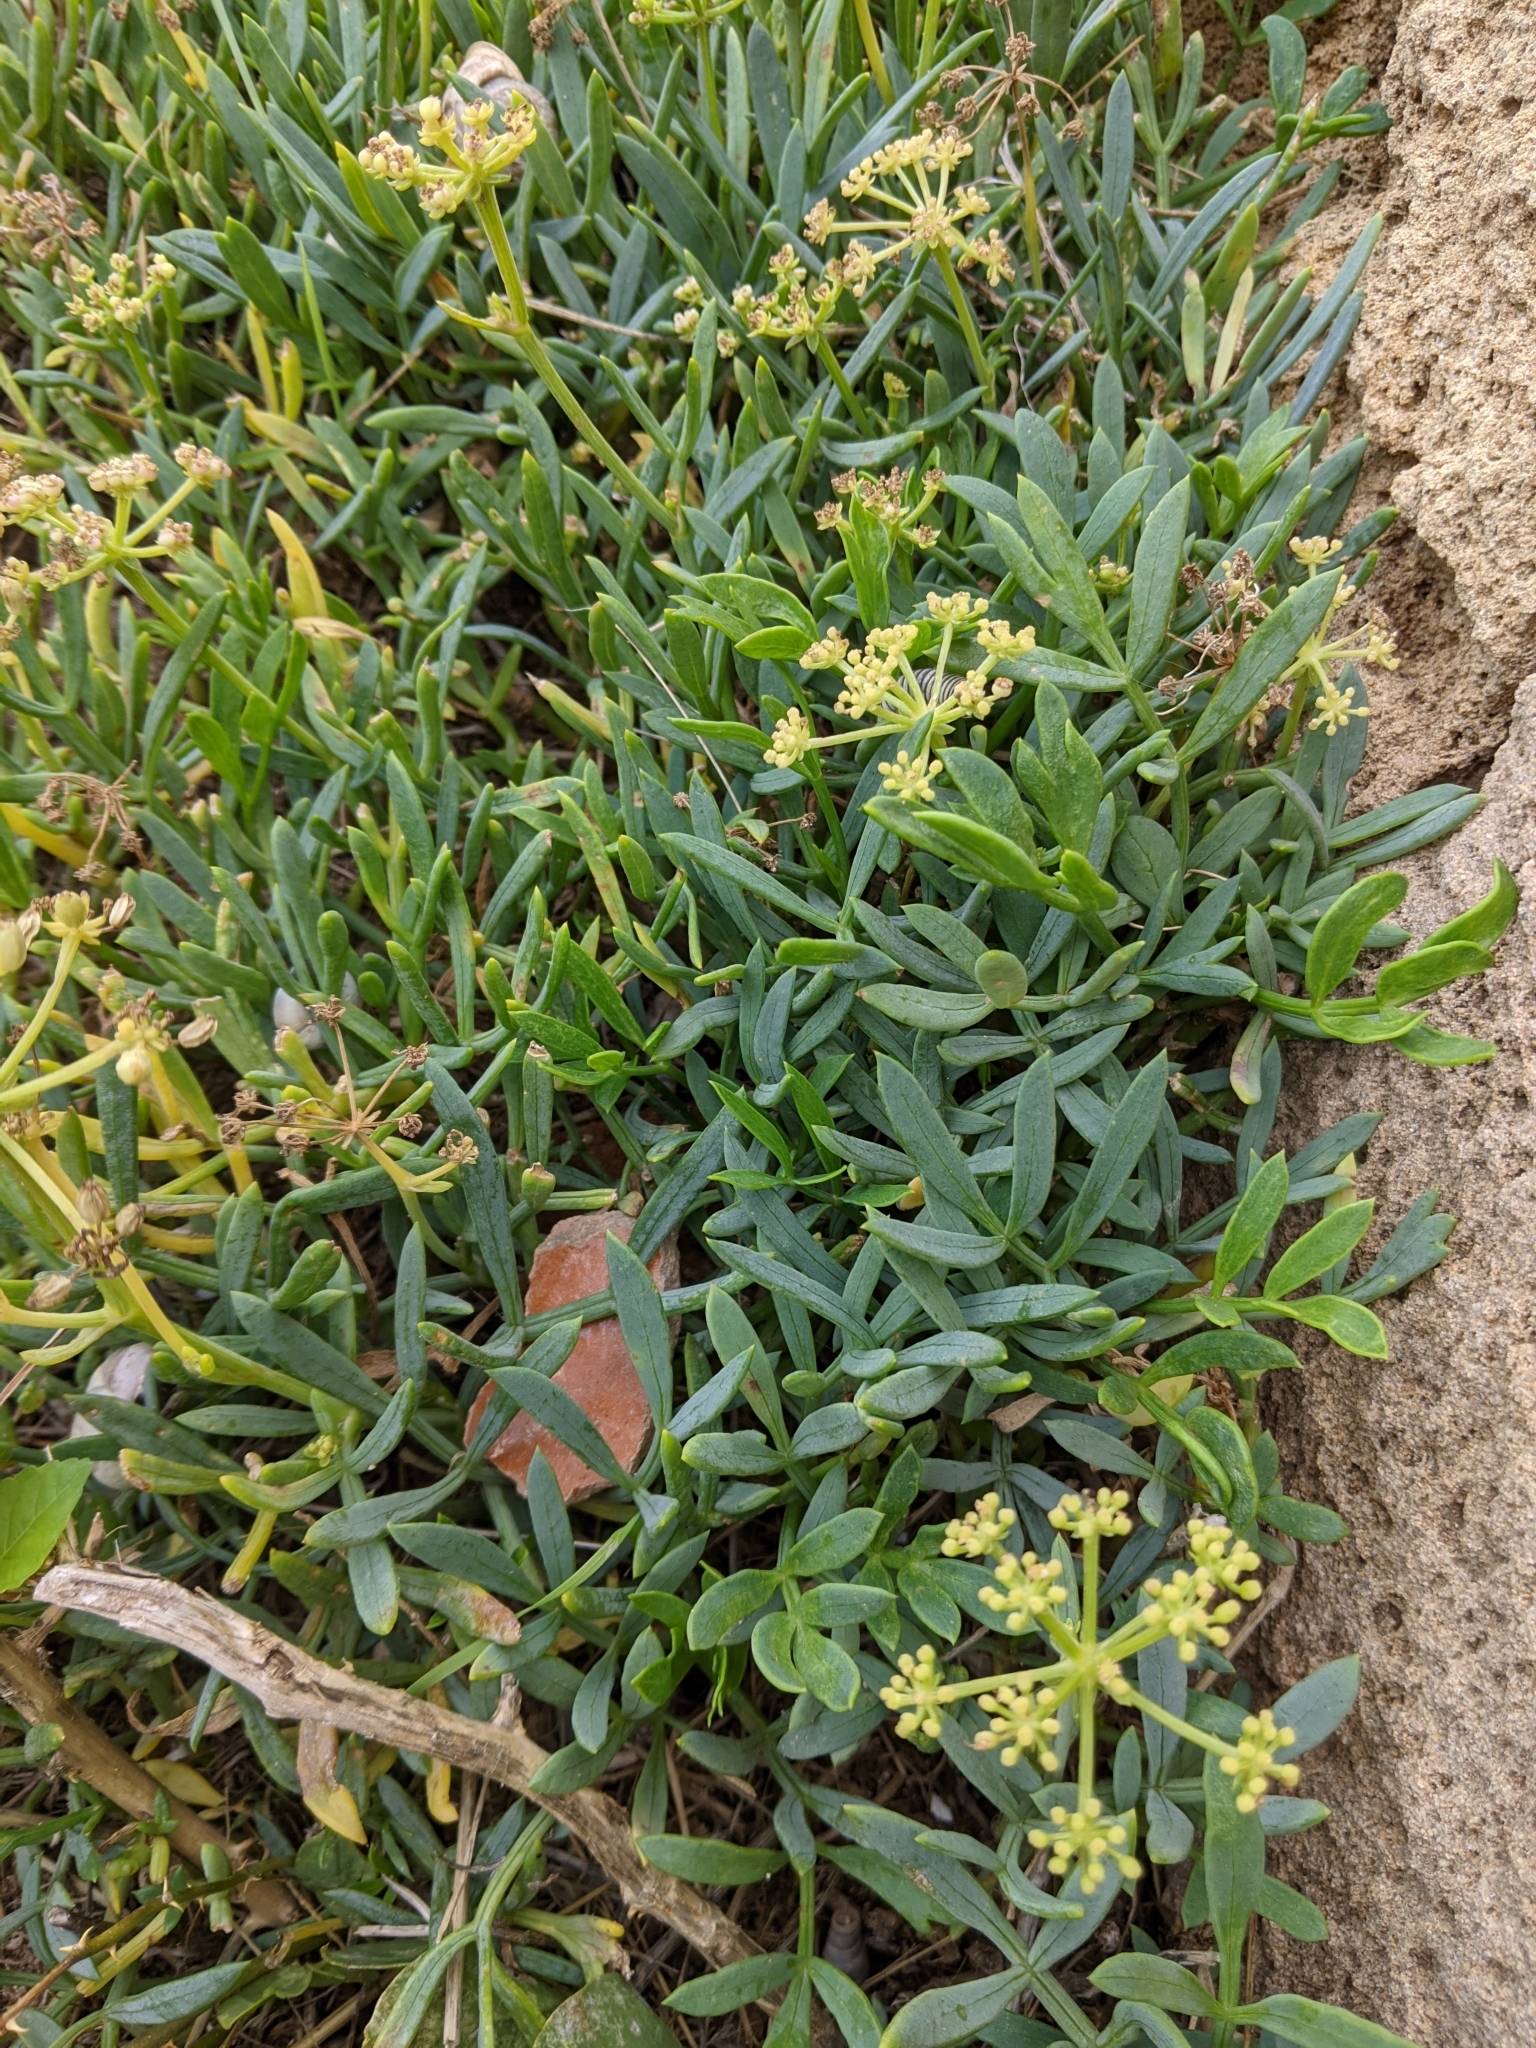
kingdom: Plantae
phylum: Tracheophyta
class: Magnoliopsida
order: Apiales
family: Apiaceae
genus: Crithmum
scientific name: Crithmum maritimum
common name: Rock samphire
